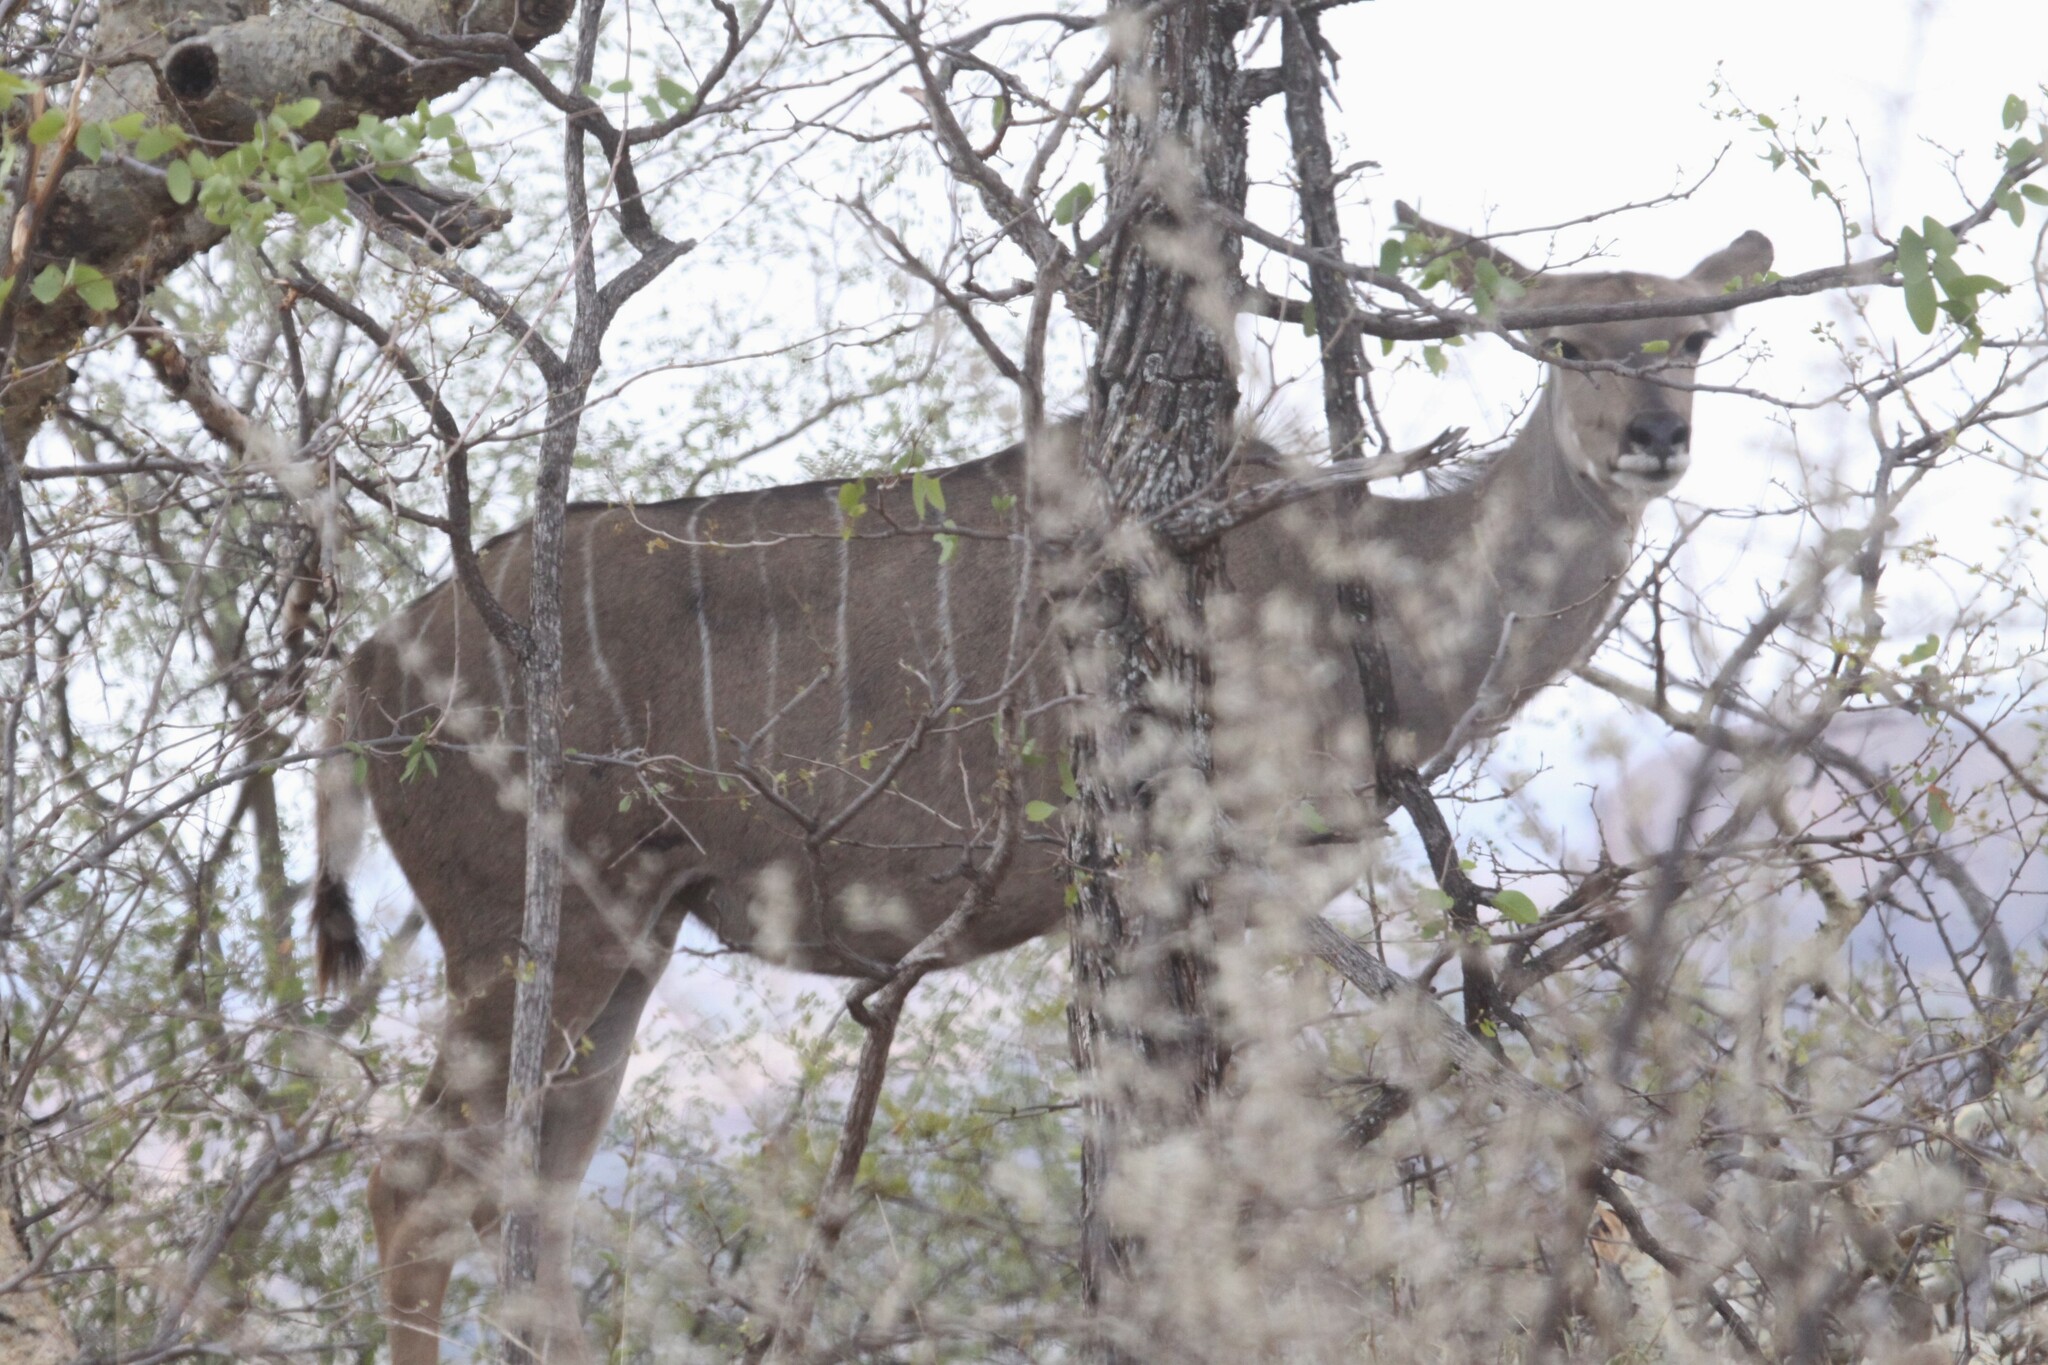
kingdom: Animalia
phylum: Chordata
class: Mammalia
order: Artiodactyla
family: Bovidae
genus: Tragelaphus
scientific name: Tragelaphus strepsiceros
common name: Greater kudu
